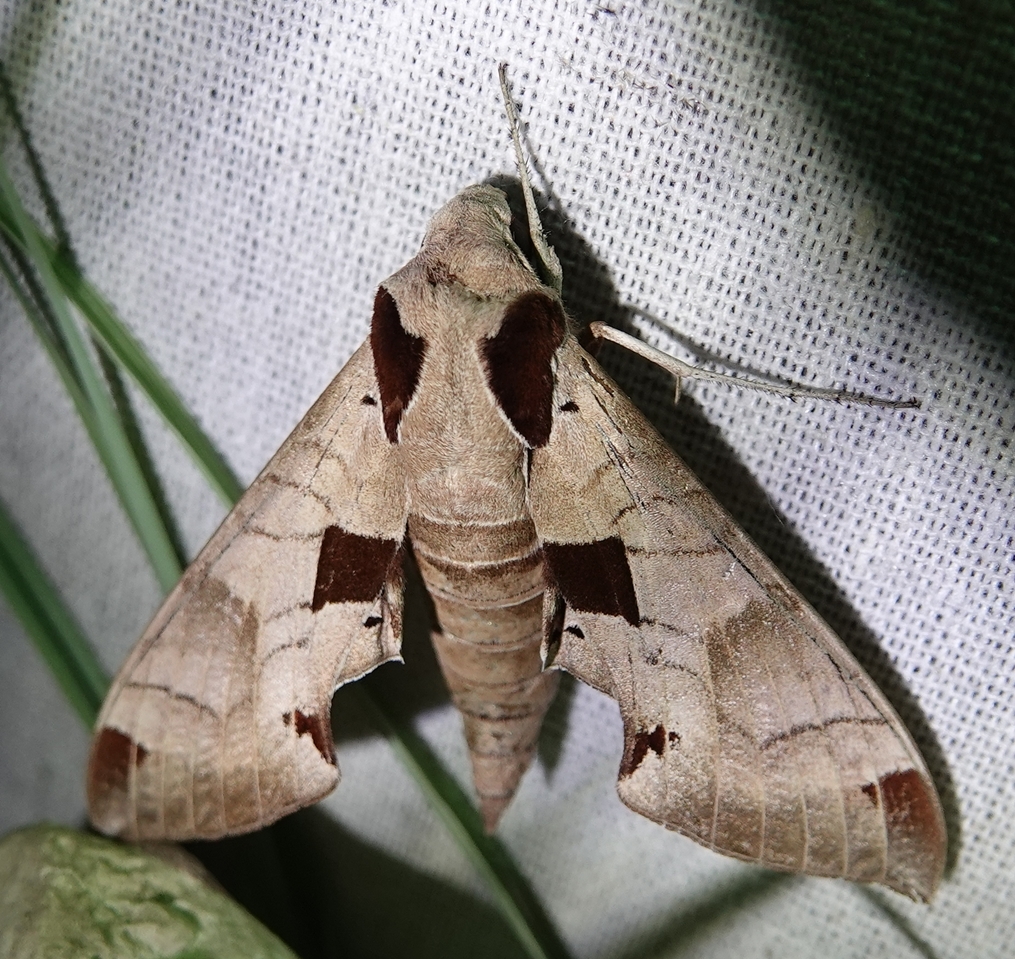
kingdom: Animalia
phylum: Arthropoda
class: Insecta
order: Lepidoptera
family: Sphingidae
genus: Eumorpha
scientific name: Eumorpha achemon
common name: Achemon sphinx
